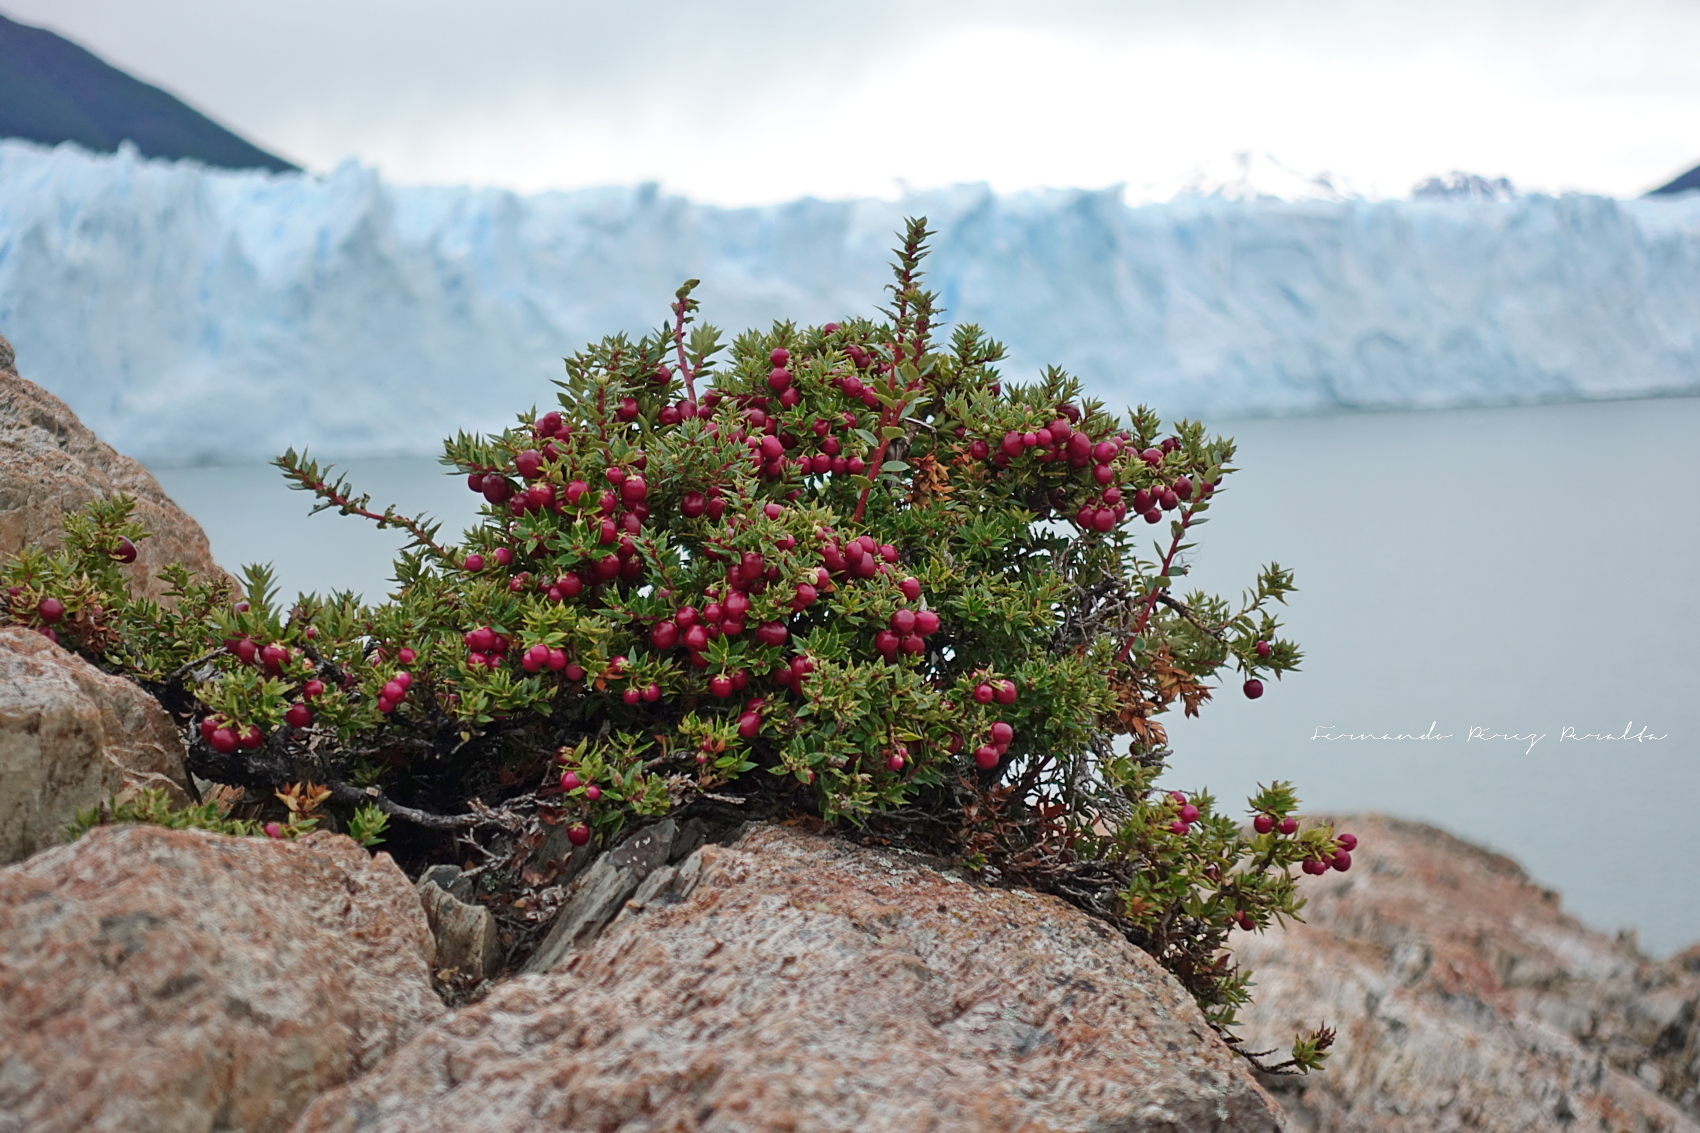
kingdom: Plantae
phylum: Tracheophyta
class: Magnoliopsida
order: Ericales
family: Ericaceae
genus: Gaultheria
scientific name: Gaultheria mucronata
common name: Prickly heath
